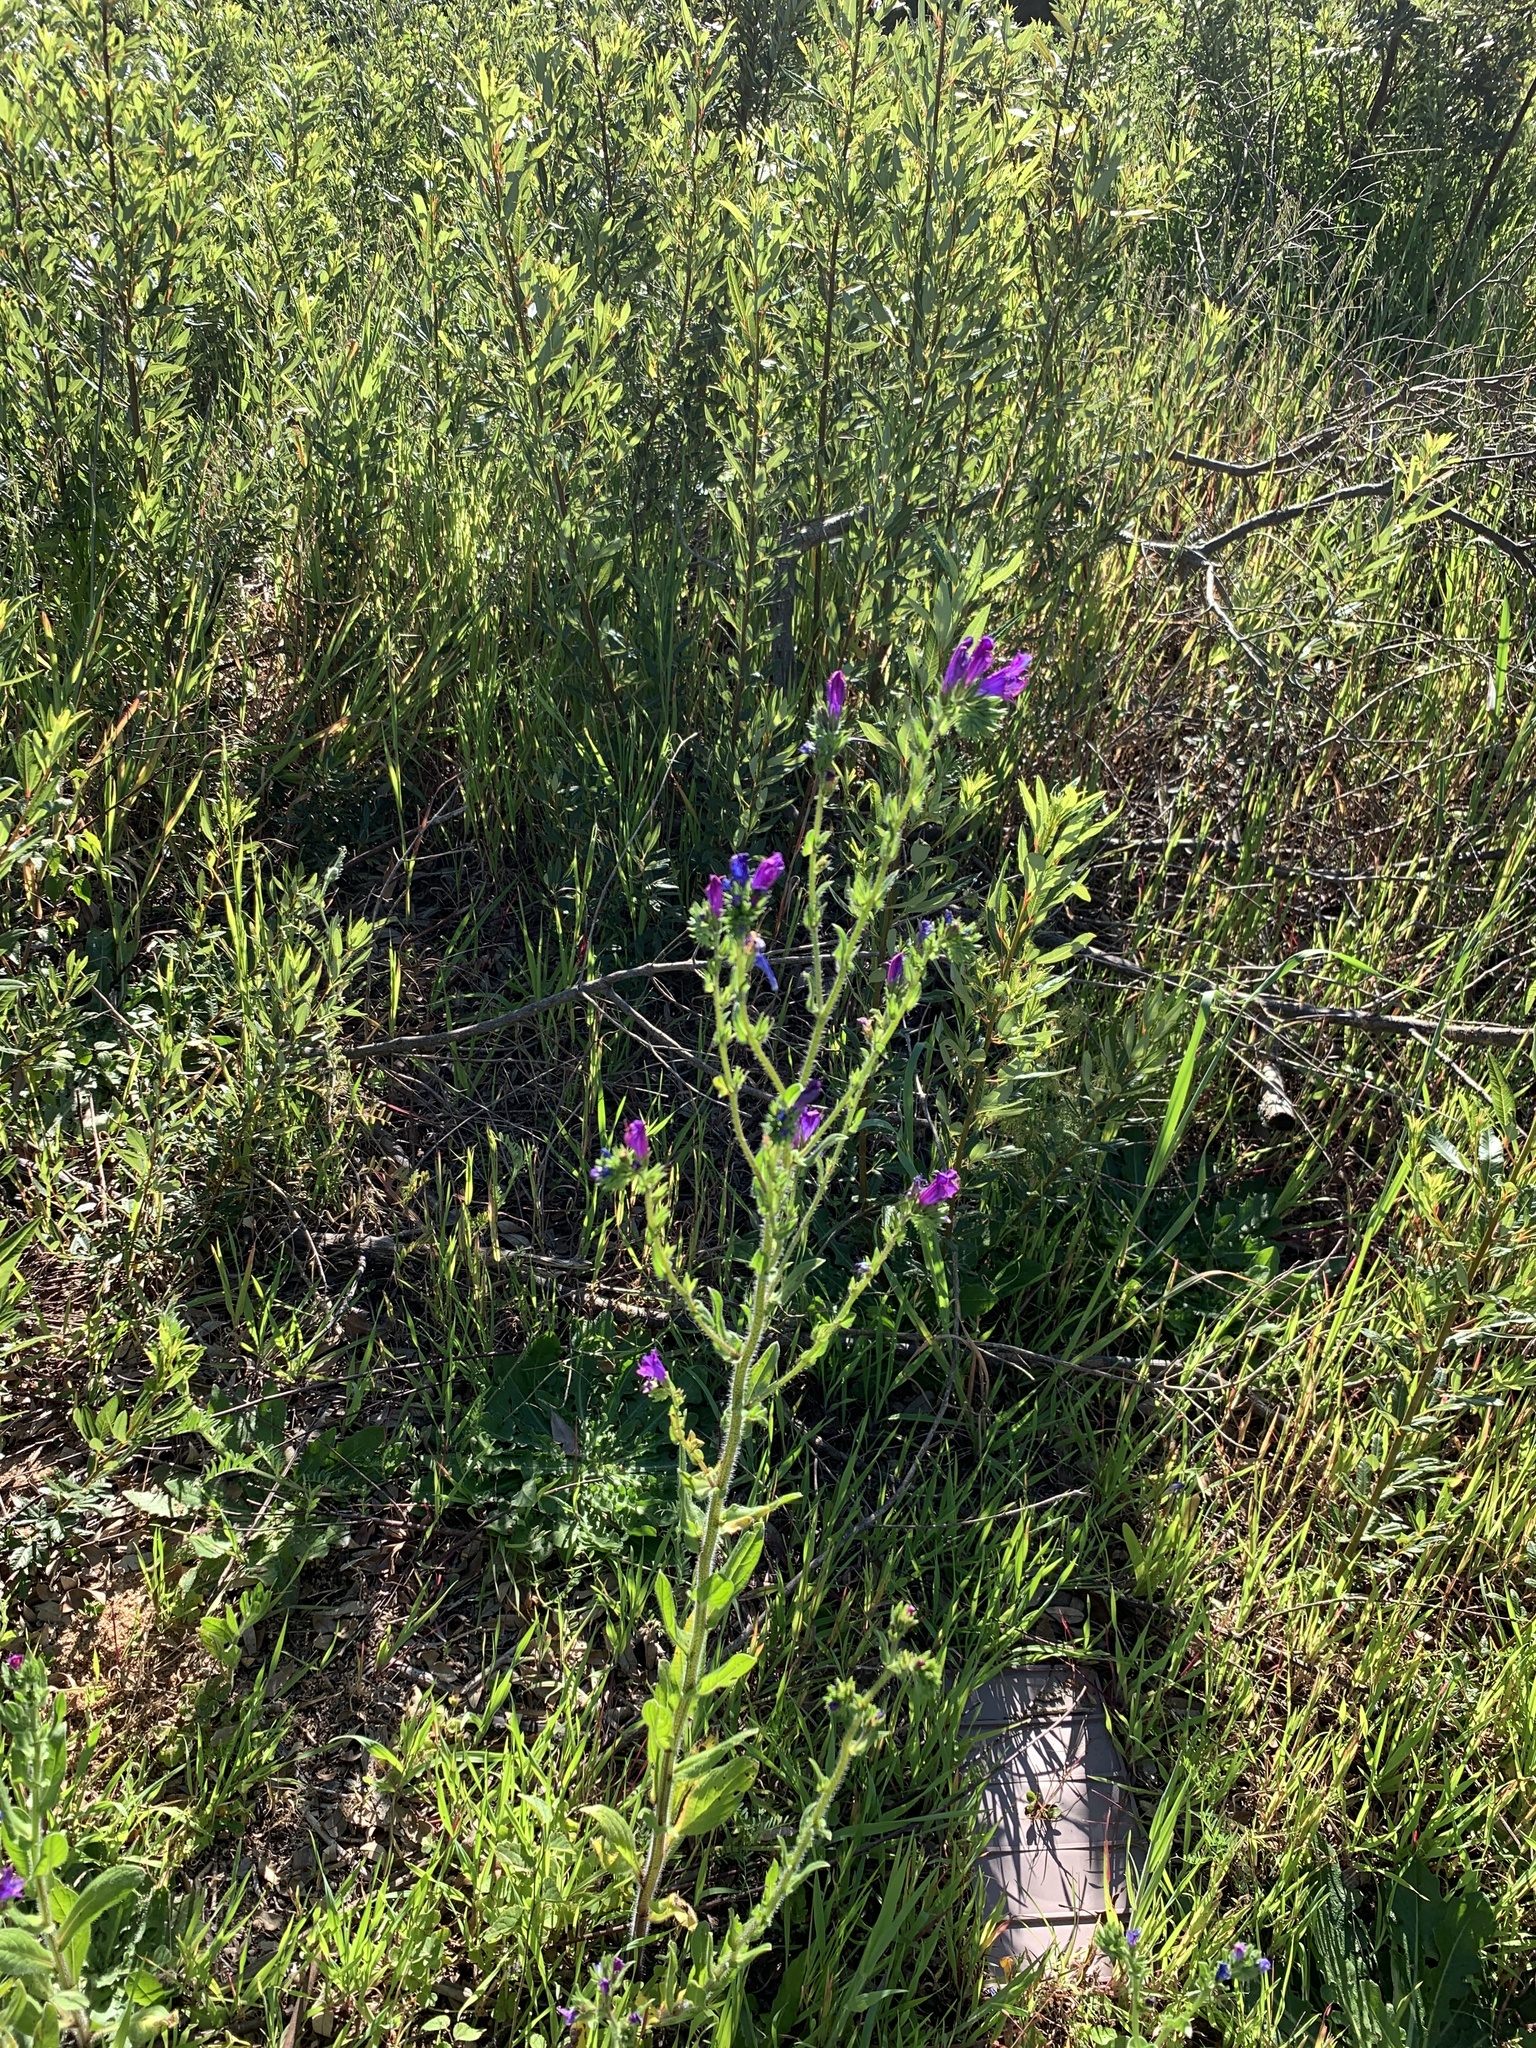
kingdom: Plantae
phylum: Tracheophyta
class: Magnoliopsida
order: Boraginales
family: Boraginaceae
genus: Echium
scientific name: Echium plantagineum
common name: Purple viper's-bugloss
